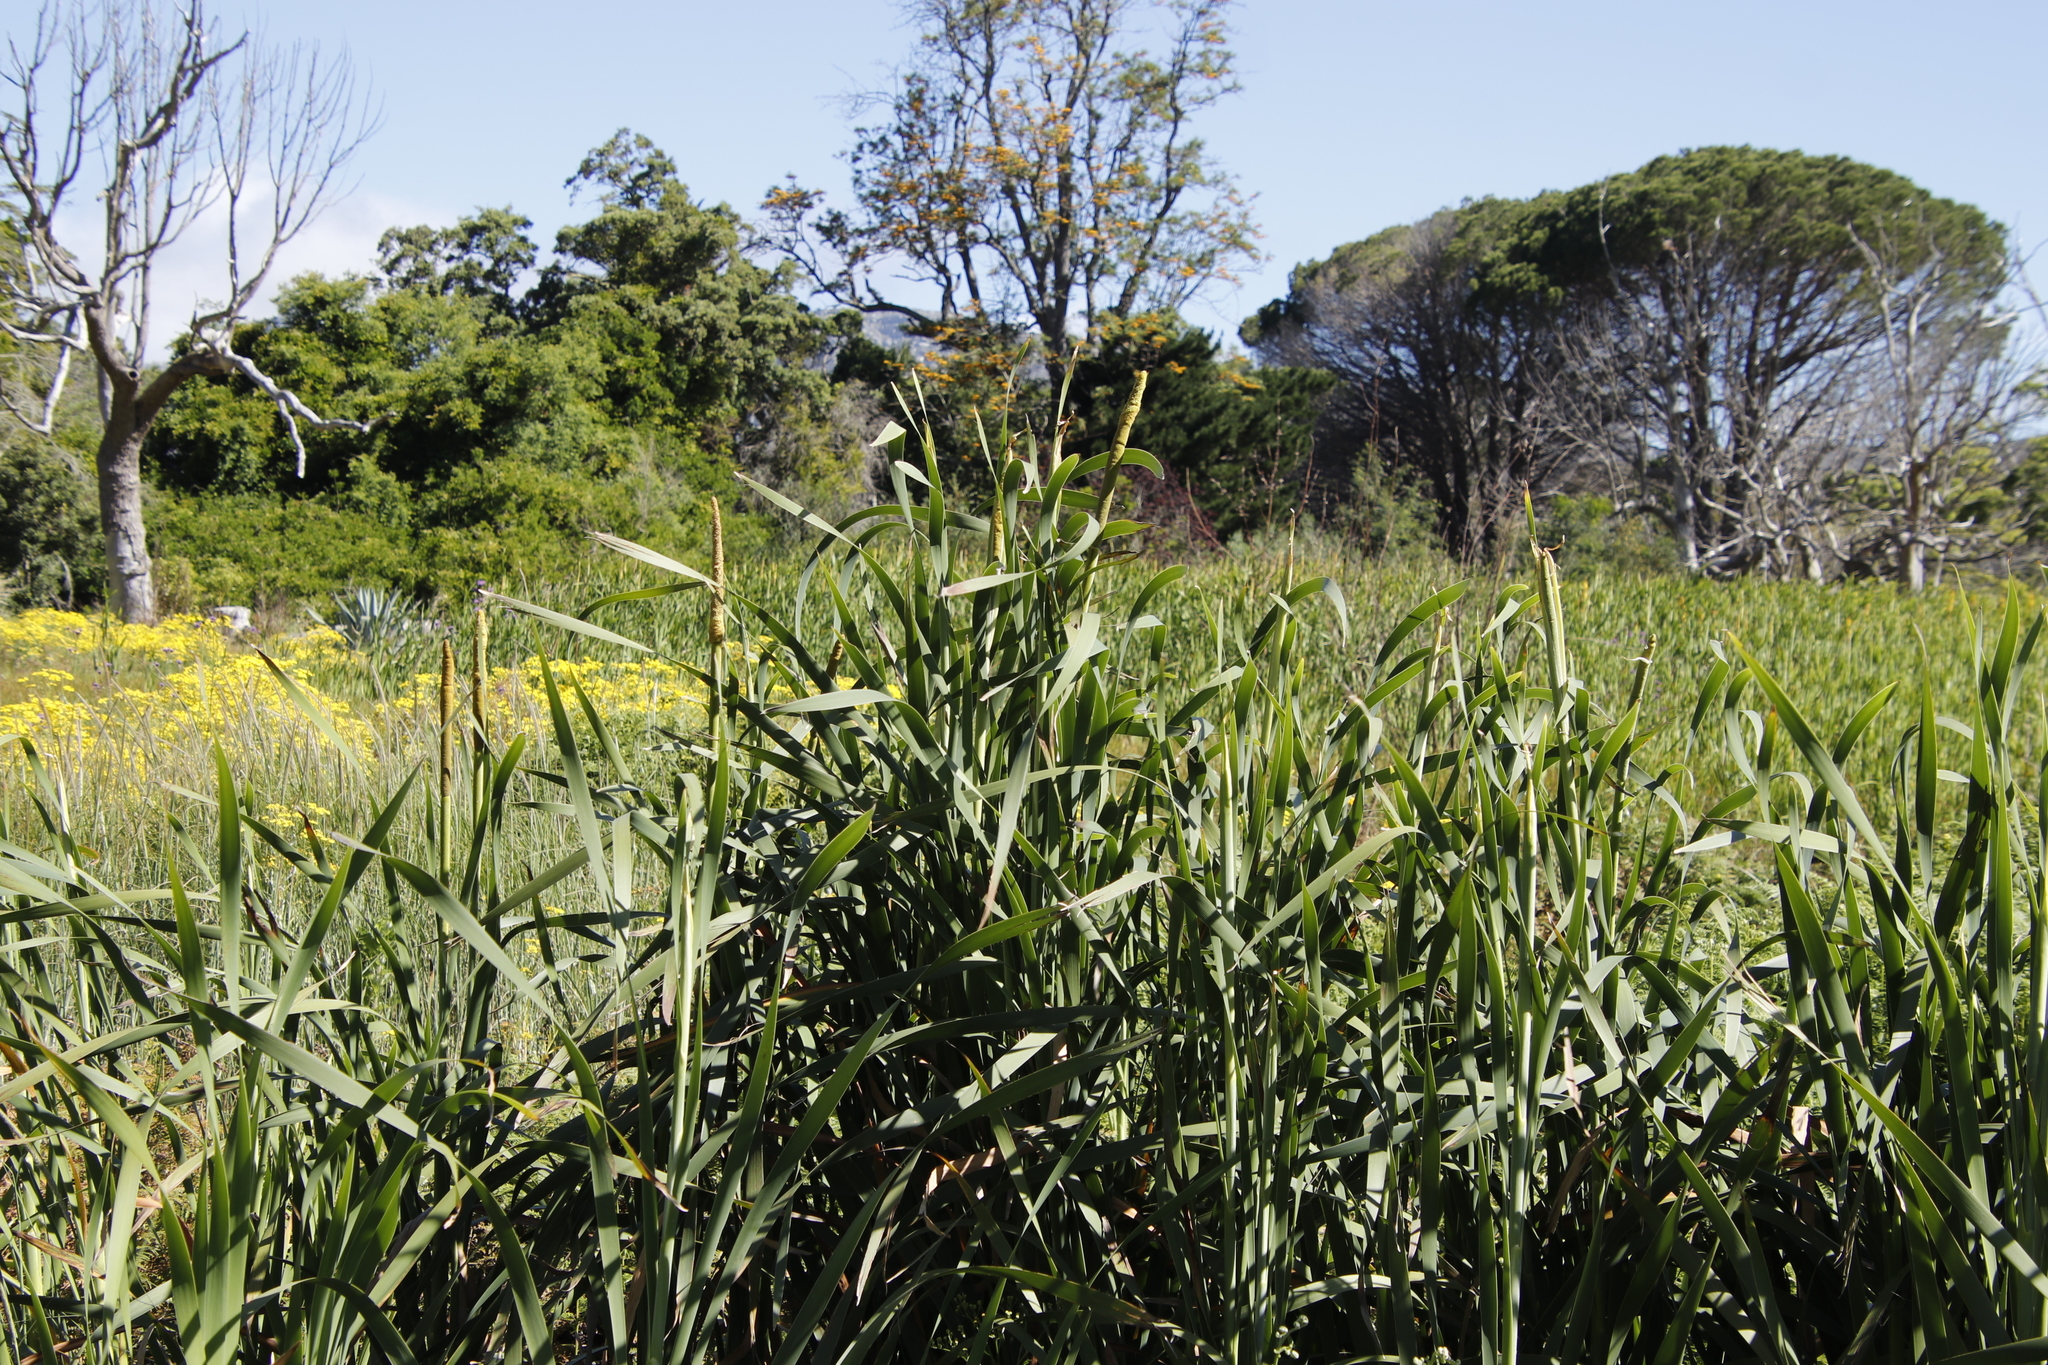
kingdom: Plantae
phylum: Tracheophyta
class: Liliopsida
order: Poales
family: Typhaceae
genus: Typha
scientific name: Typha capensis
